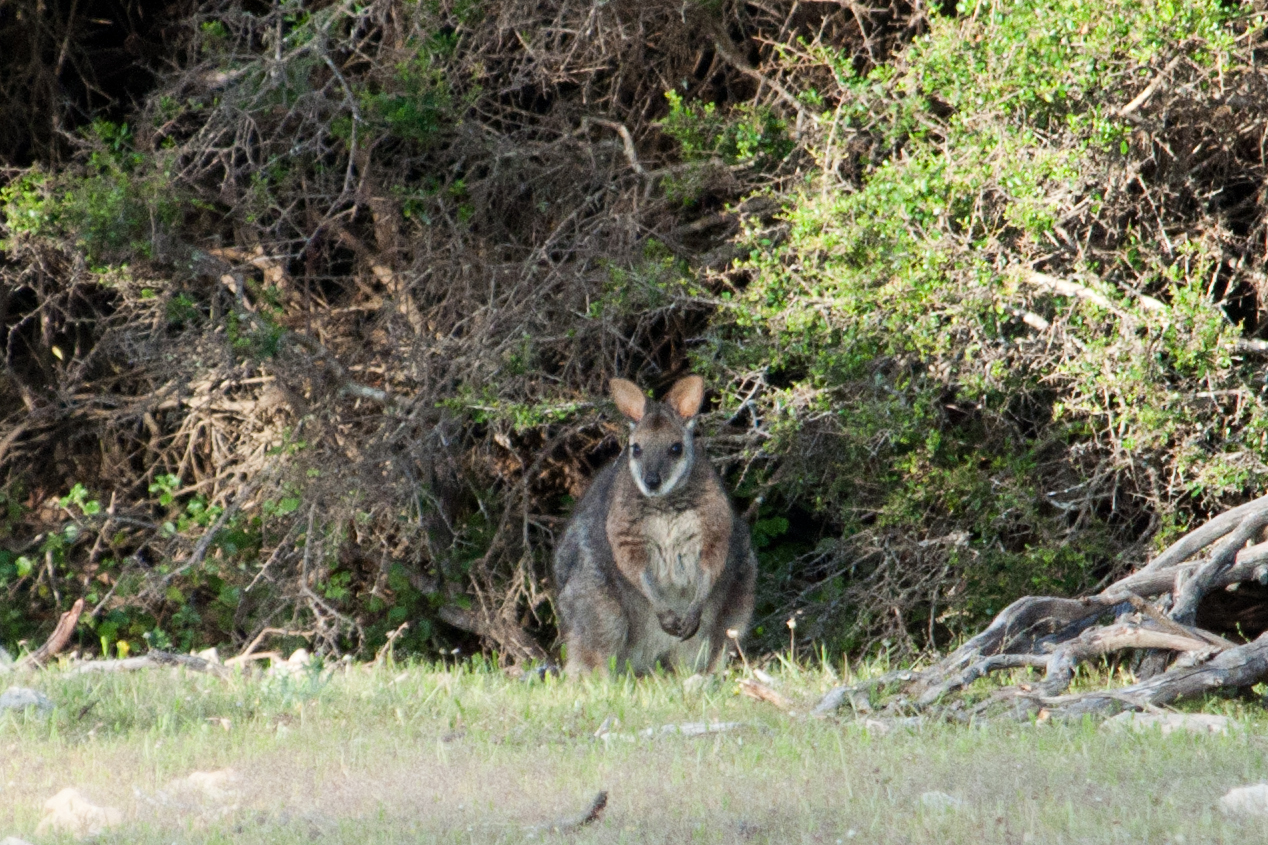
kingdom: Animalia
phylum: Chordata
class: Mammalia
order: Diprotodontia
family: Macropodidae
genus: Macropus
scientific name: Macropus eugenii
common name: Tammar wallaby
